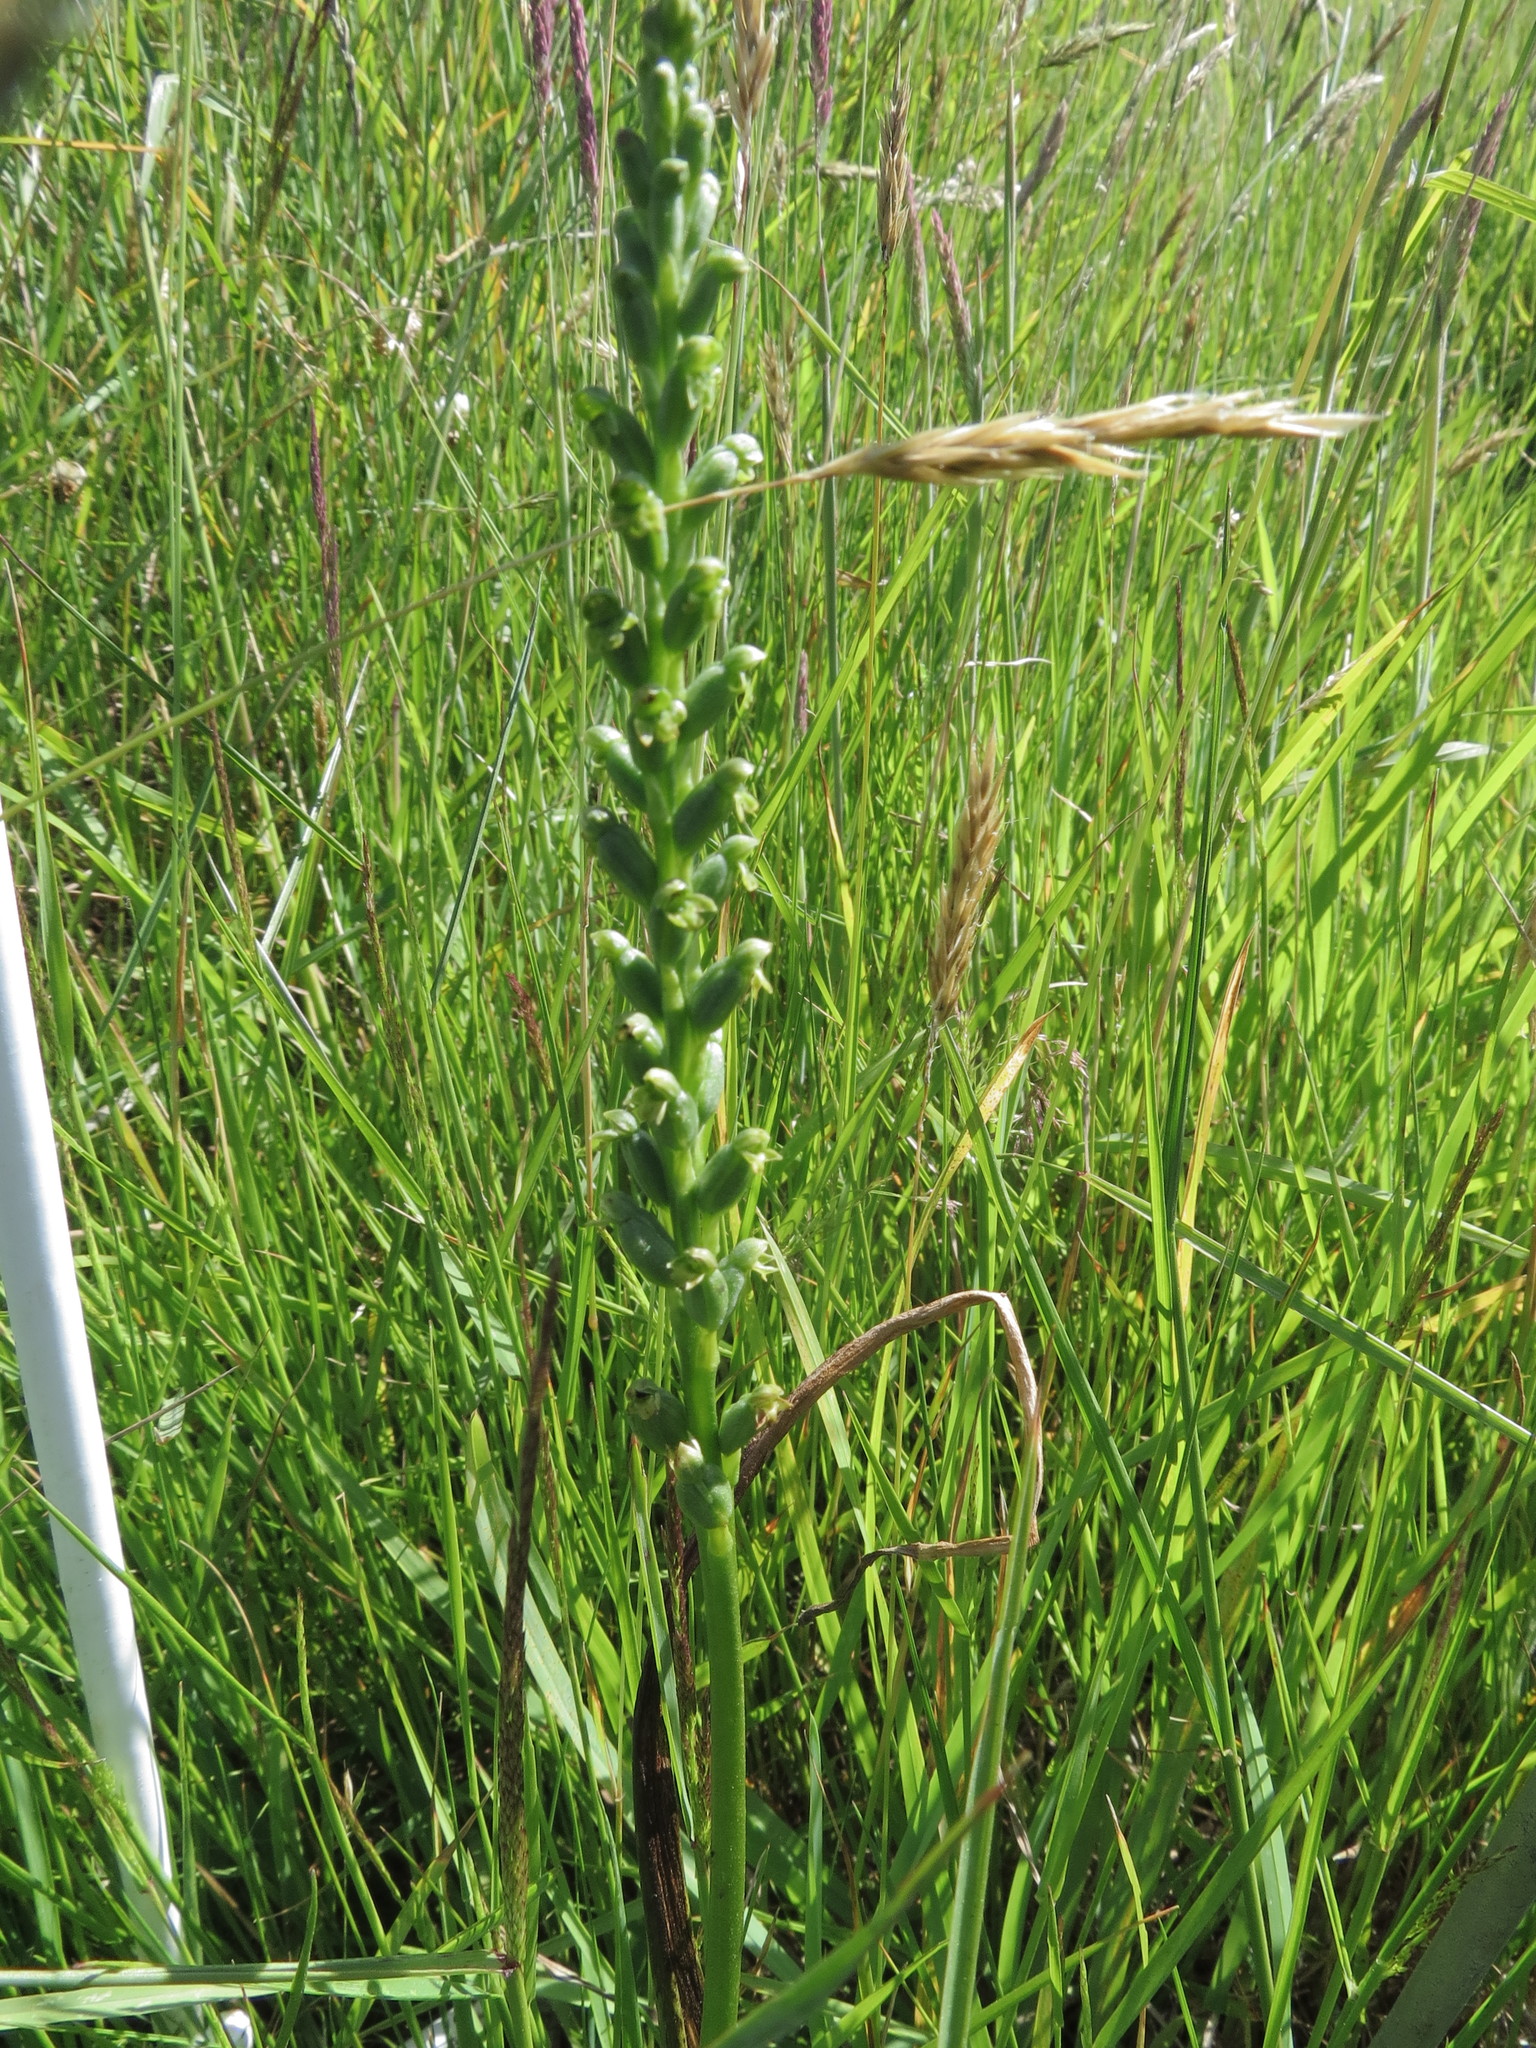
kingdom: Plantae
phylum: Tracheophyta
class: Liliopsida
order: Asparagales
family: Orchidaceae
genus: Microtis
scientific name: Microtis unifolia
